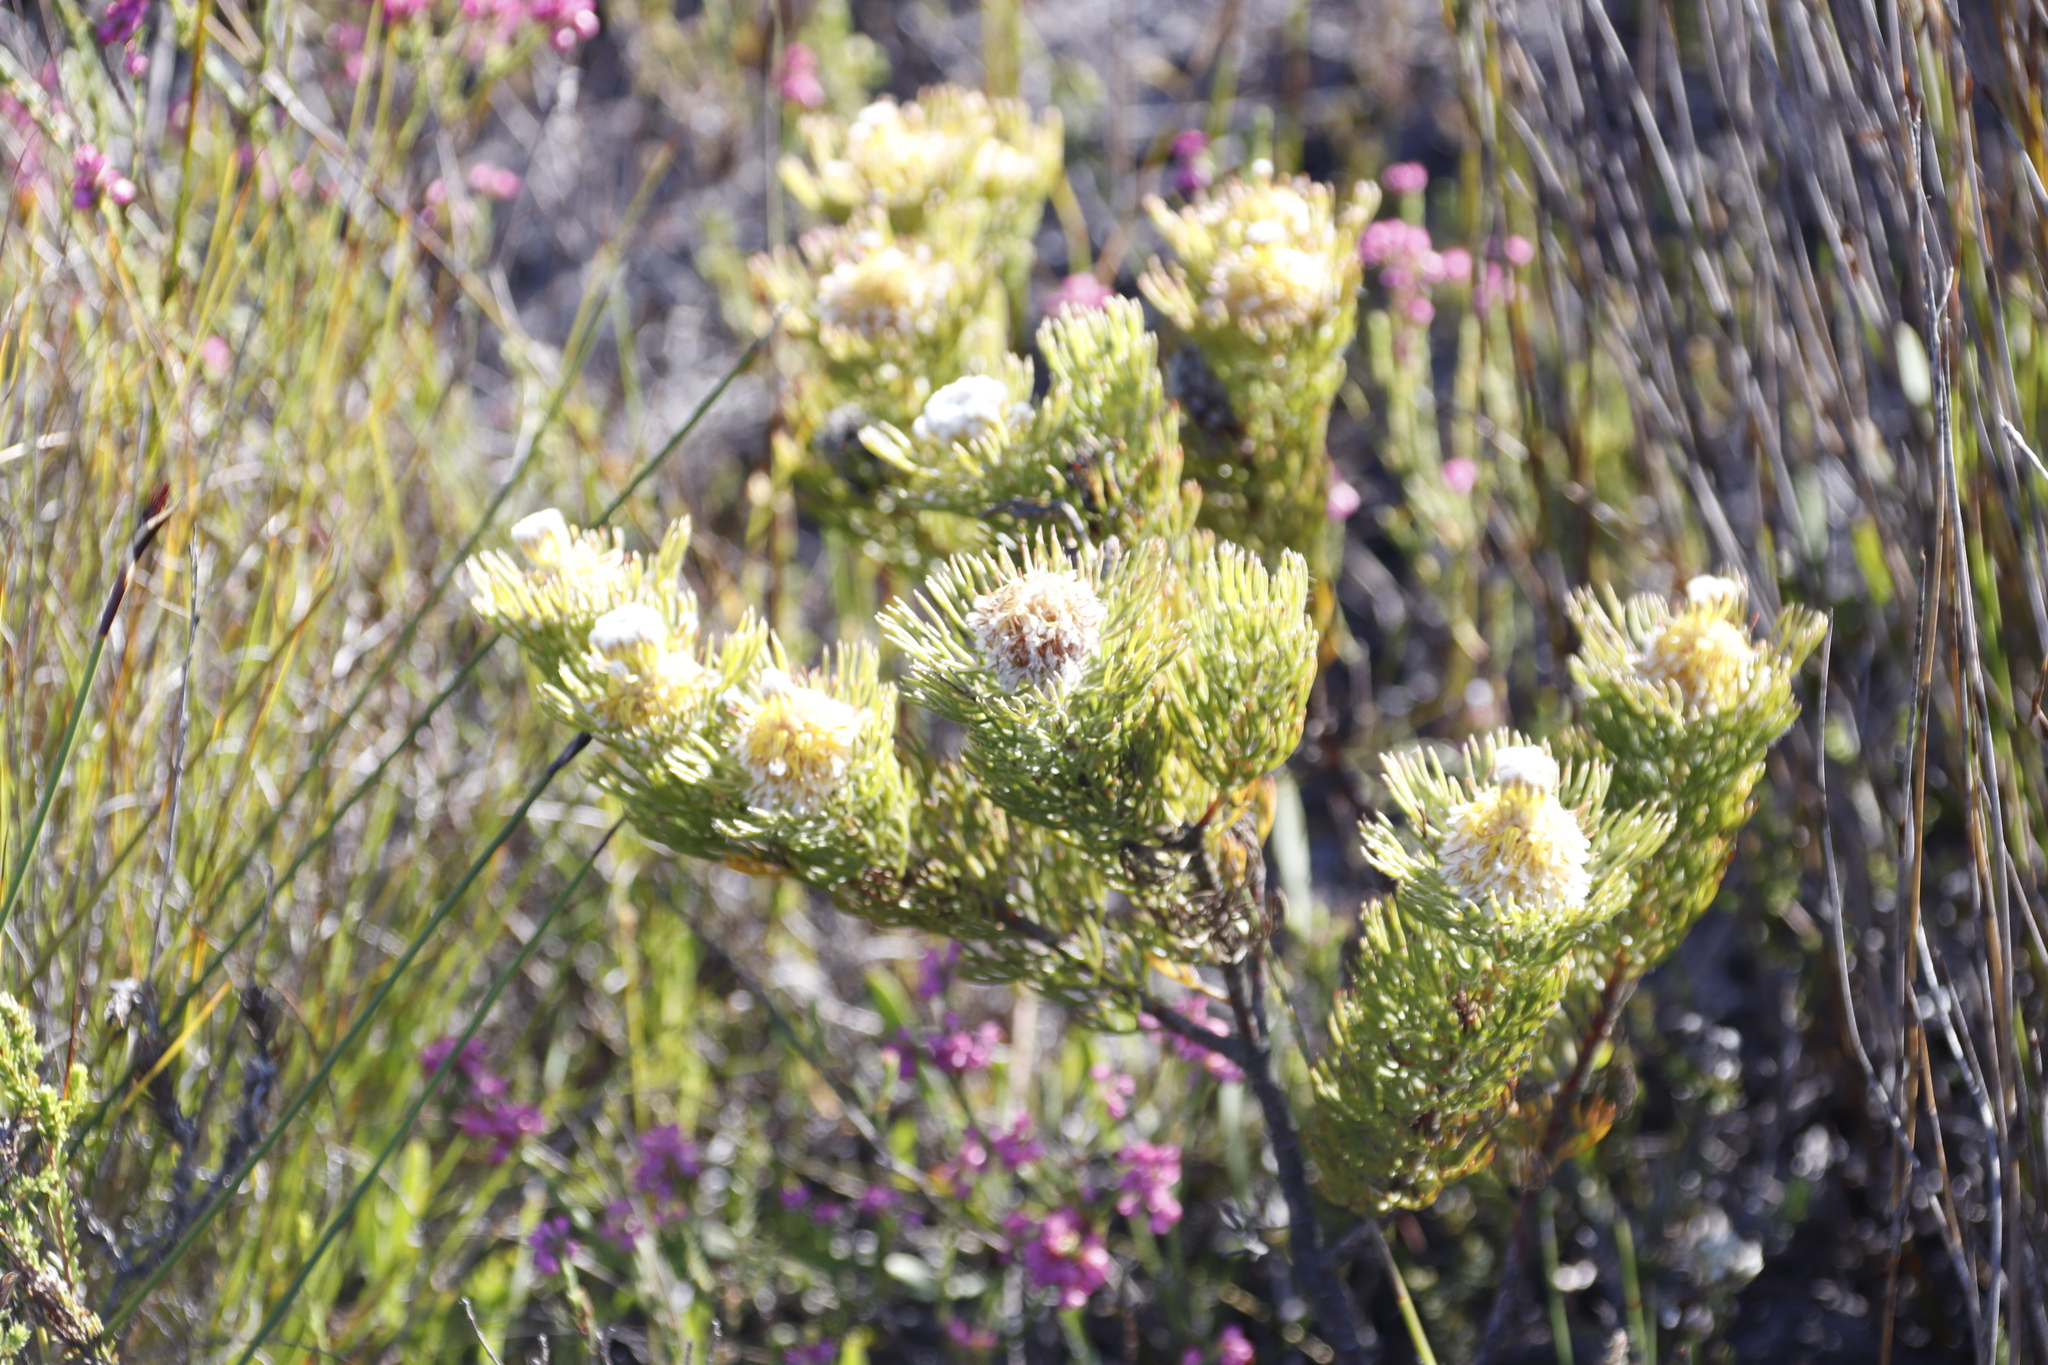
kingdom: Plantae
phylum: Tracheophyta
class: Magnoliopsida
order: Proteales
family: Proteaceae
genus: Serruria
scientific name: Serruria villosa
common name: Golden spiderhead
